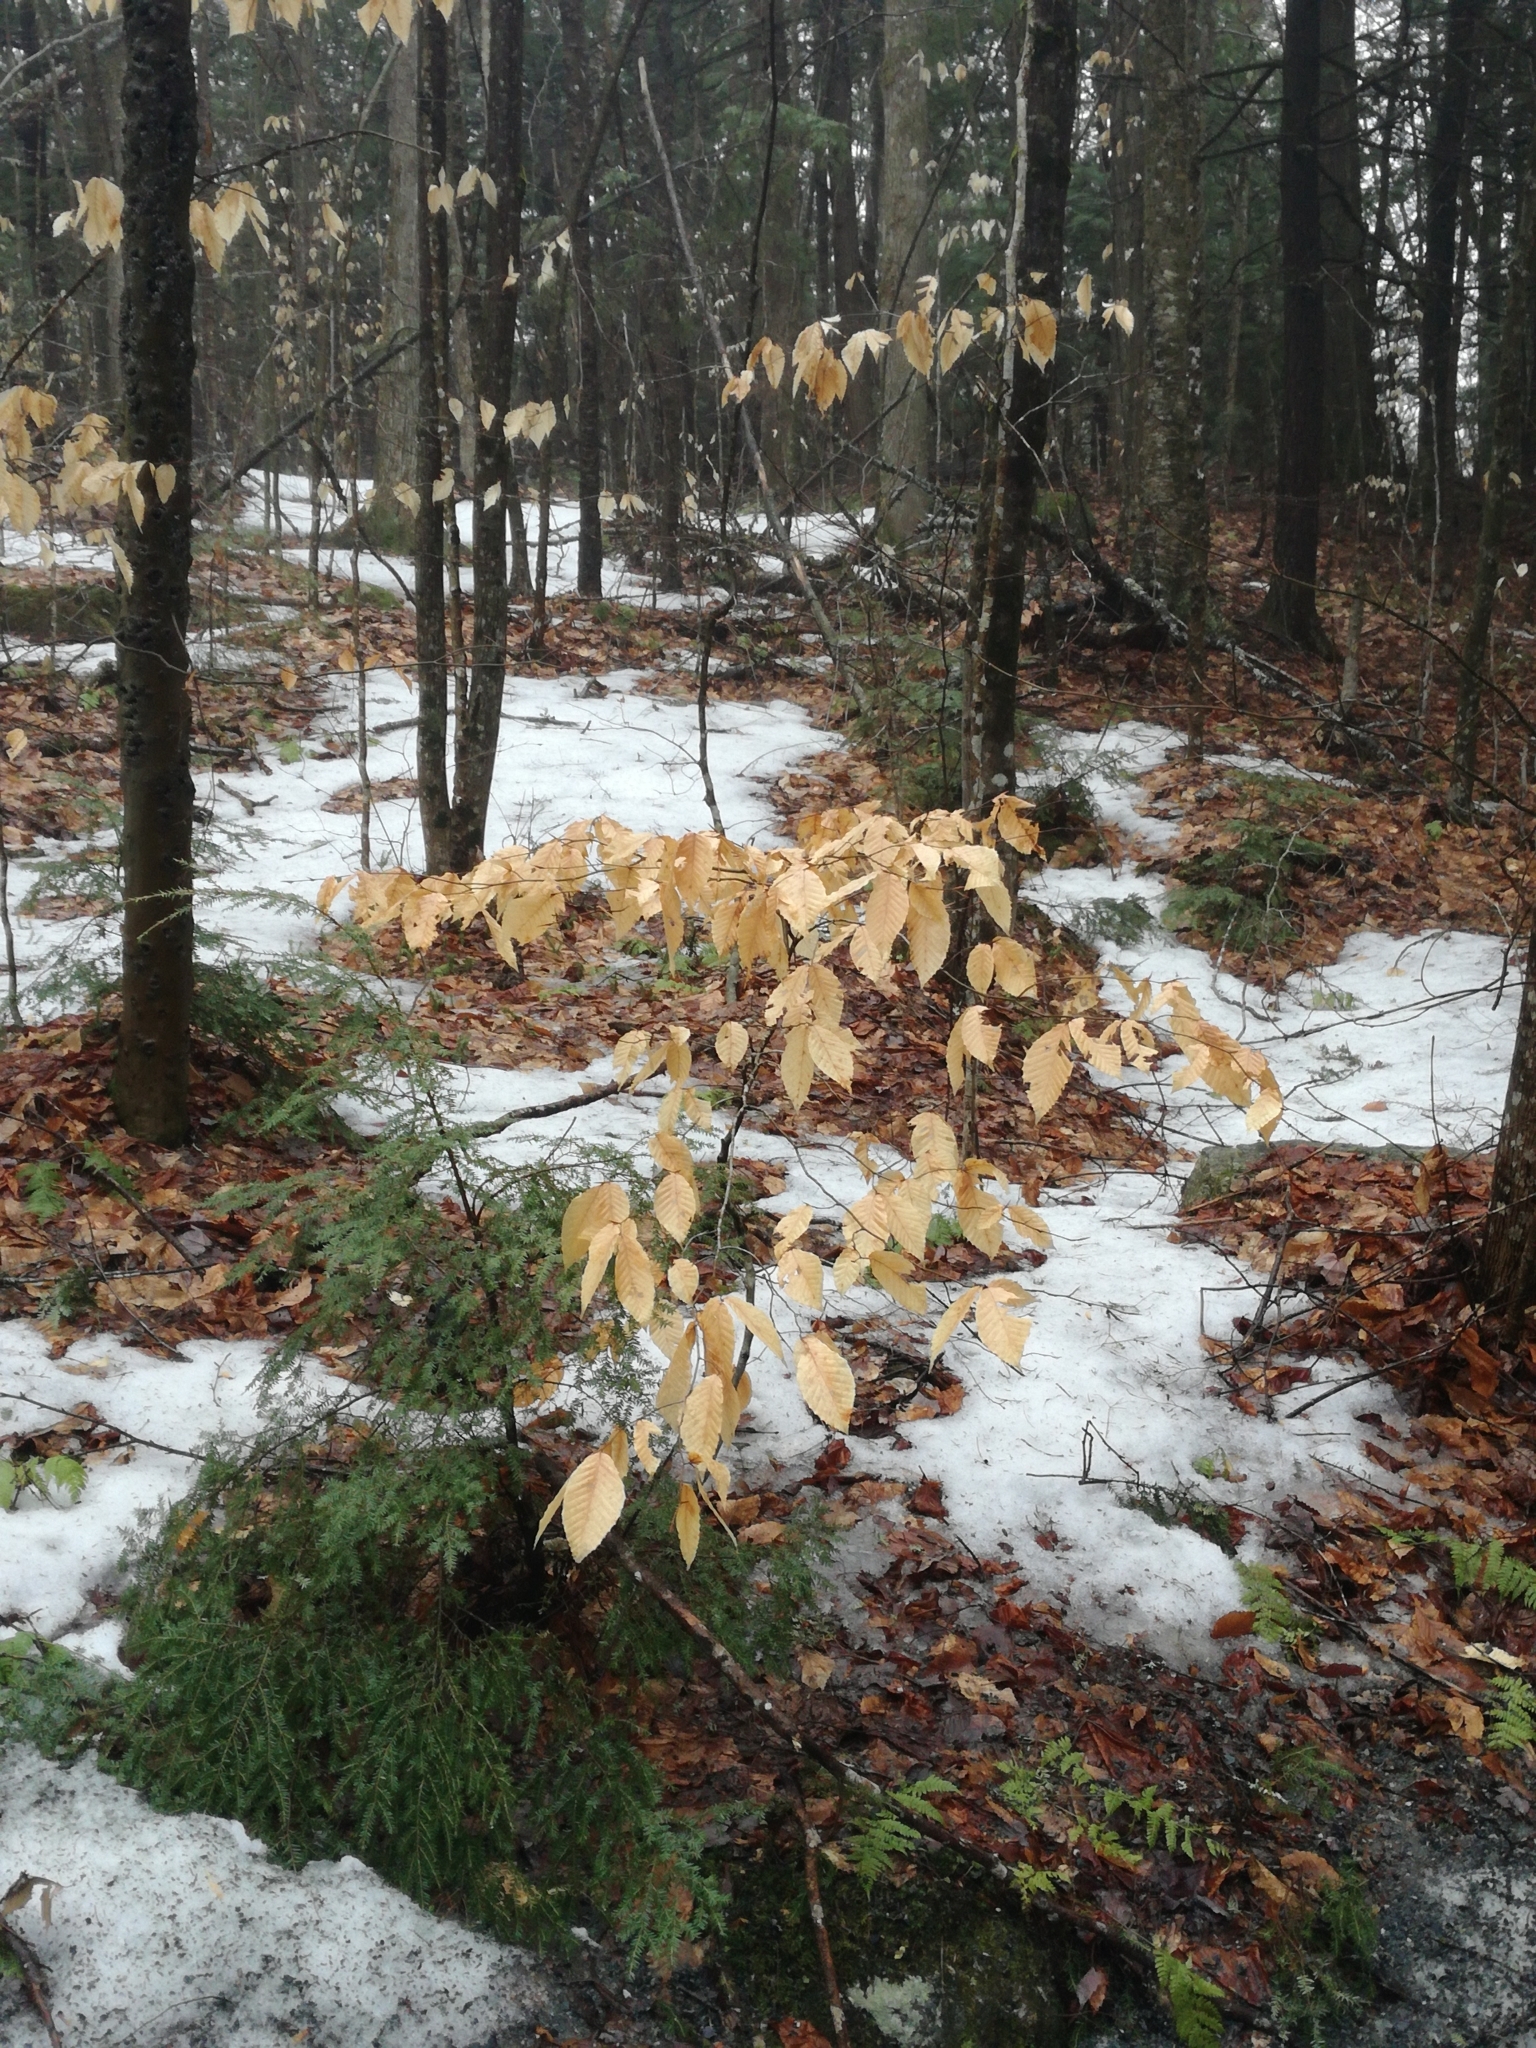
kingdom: Plantae
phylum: Tracheophyta
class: Magnoliopsida
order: Fagales
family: Fagaceae
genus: Fagus
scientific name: Fagus grandifolia
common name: American beech
